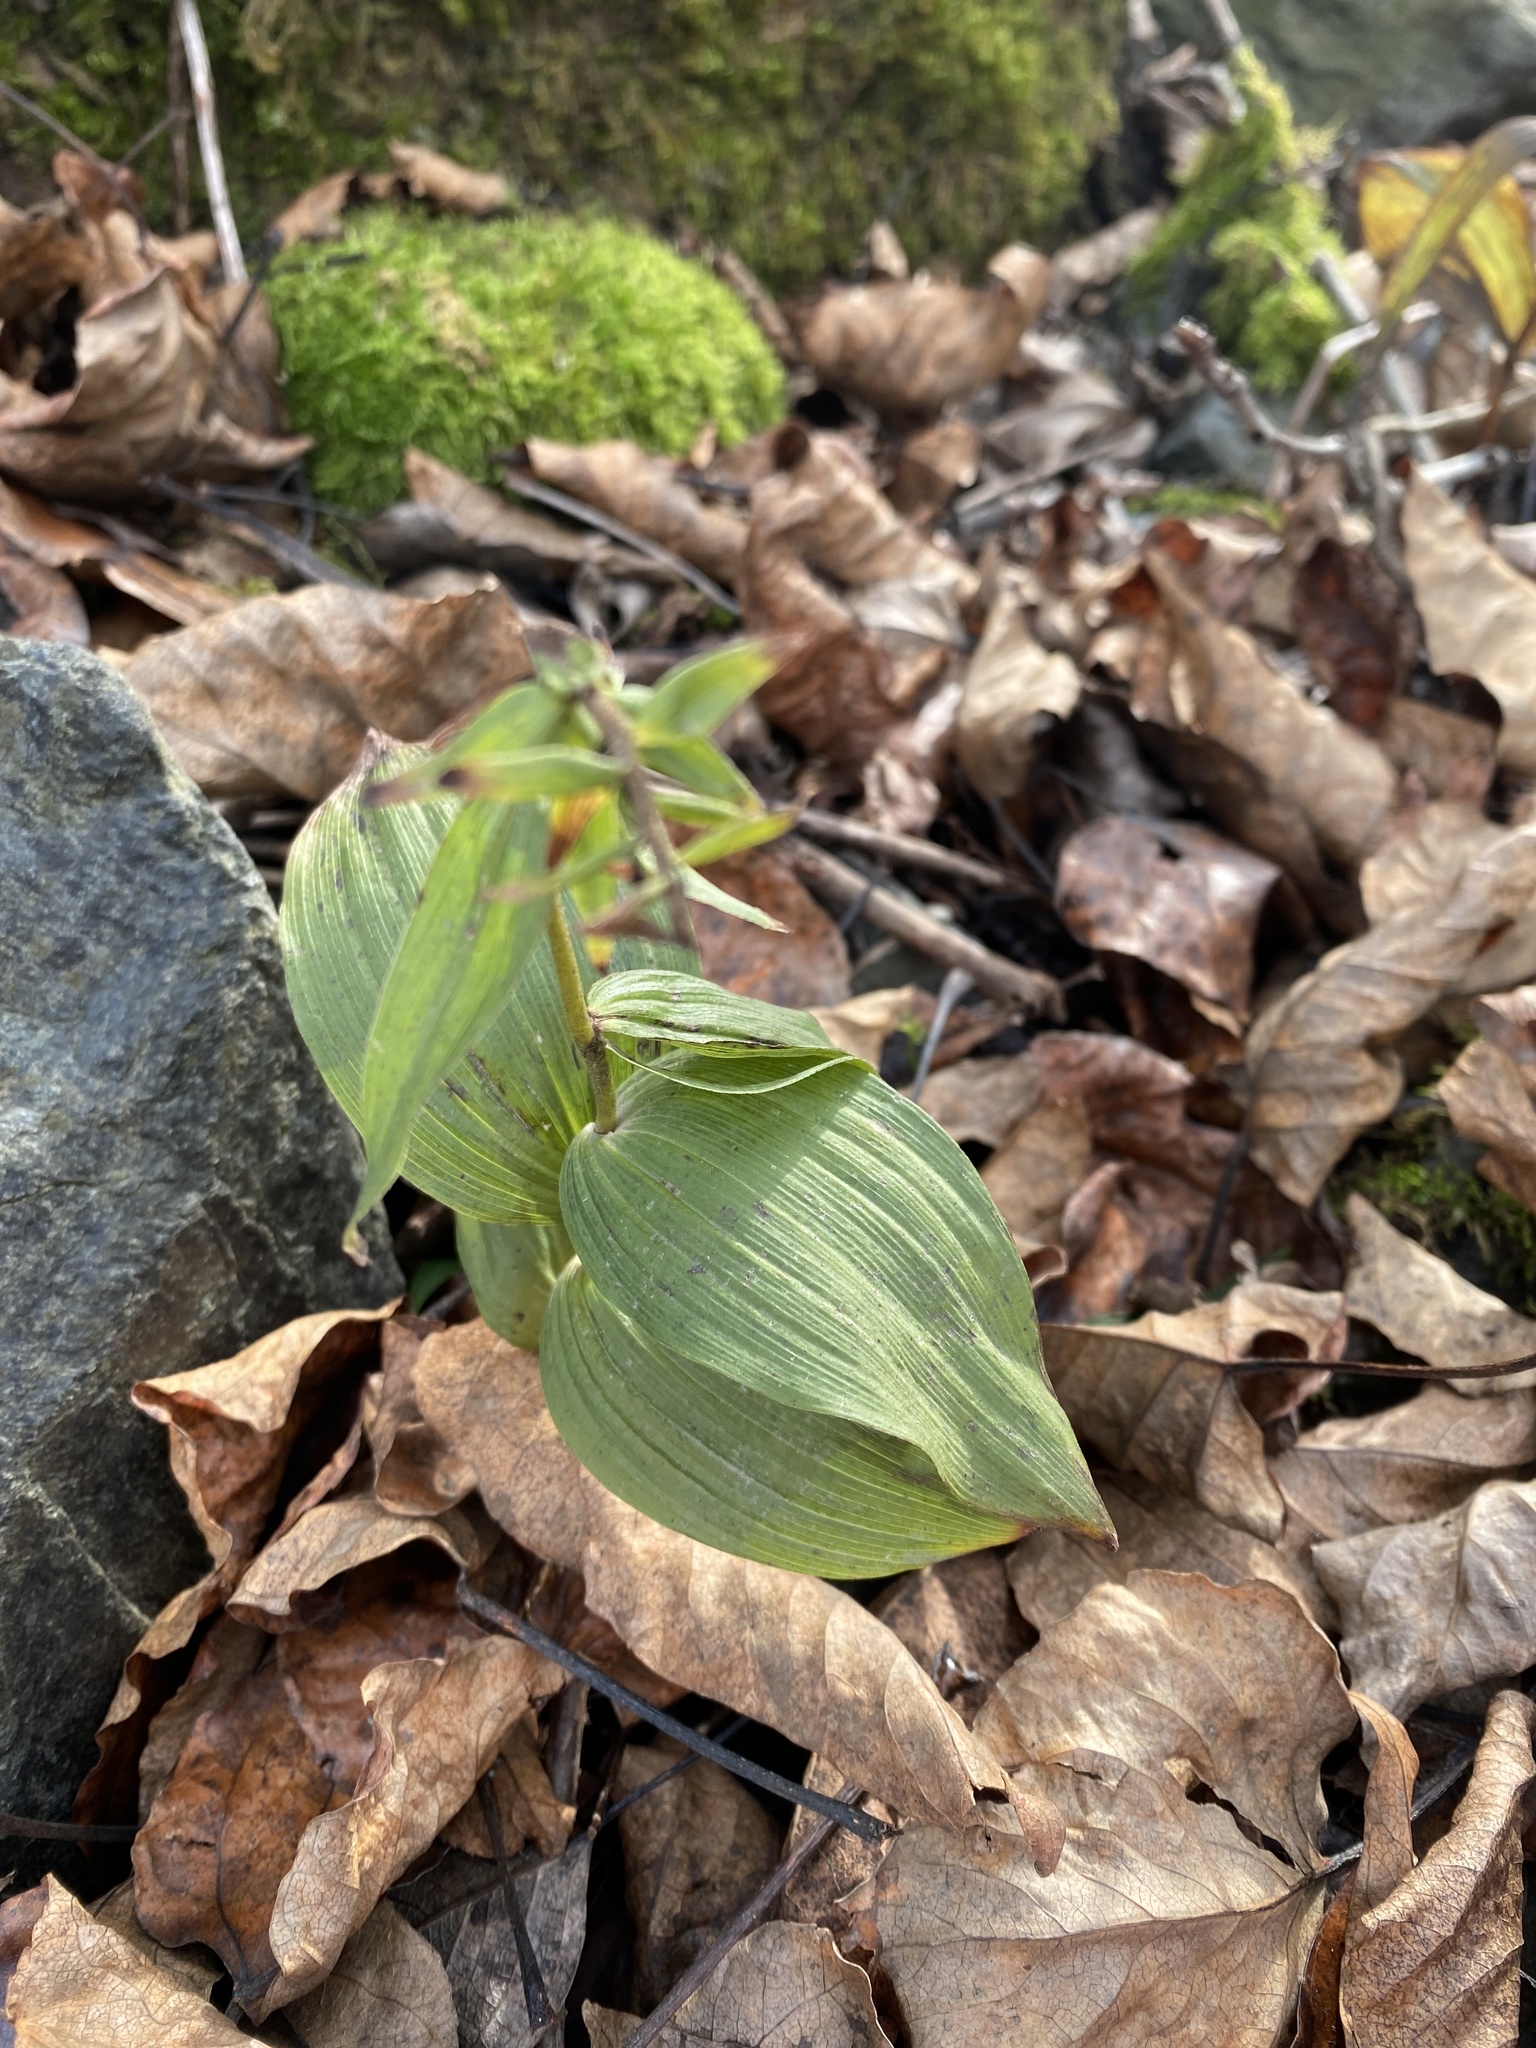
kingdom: Plantae
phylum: Tracheophyta
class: Liliopsida
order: Asparagales
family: Orchidaceae
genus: Epipactis
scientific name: Epipactis helleborine
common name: Broad-leaved helleborine
